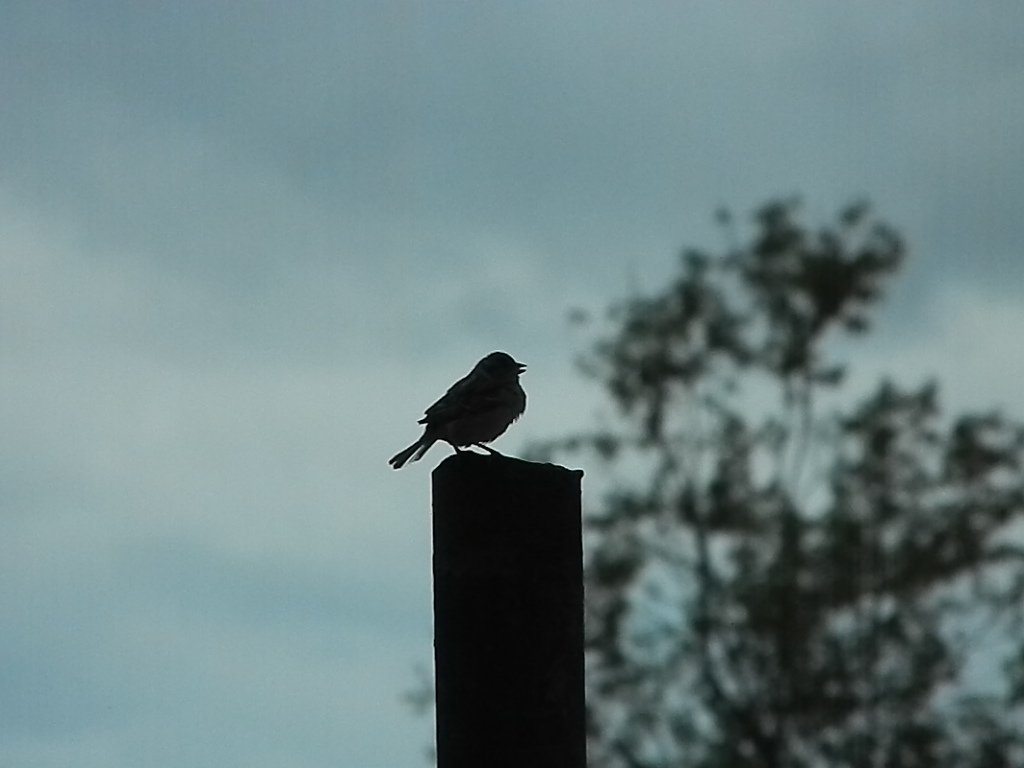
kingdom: Animalia
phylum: Chordata
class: Aves
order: Passeriformes
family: Fringillidae
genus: Fringilla
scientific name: Fringilla coelebs
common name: Common chaffinch
